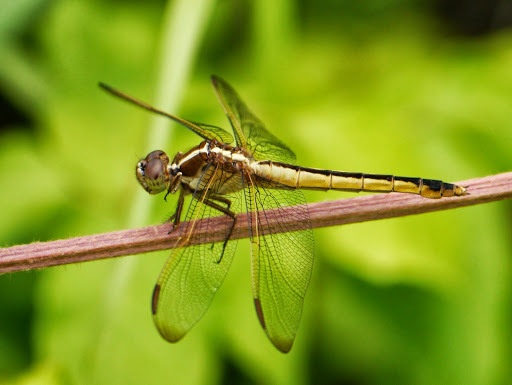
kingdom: Animalia
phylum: Arthropoda
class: Insecta
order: Odonata
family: Libellulidae
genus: Libellula
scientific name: Libellula incesta
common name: Slaty skimmer
